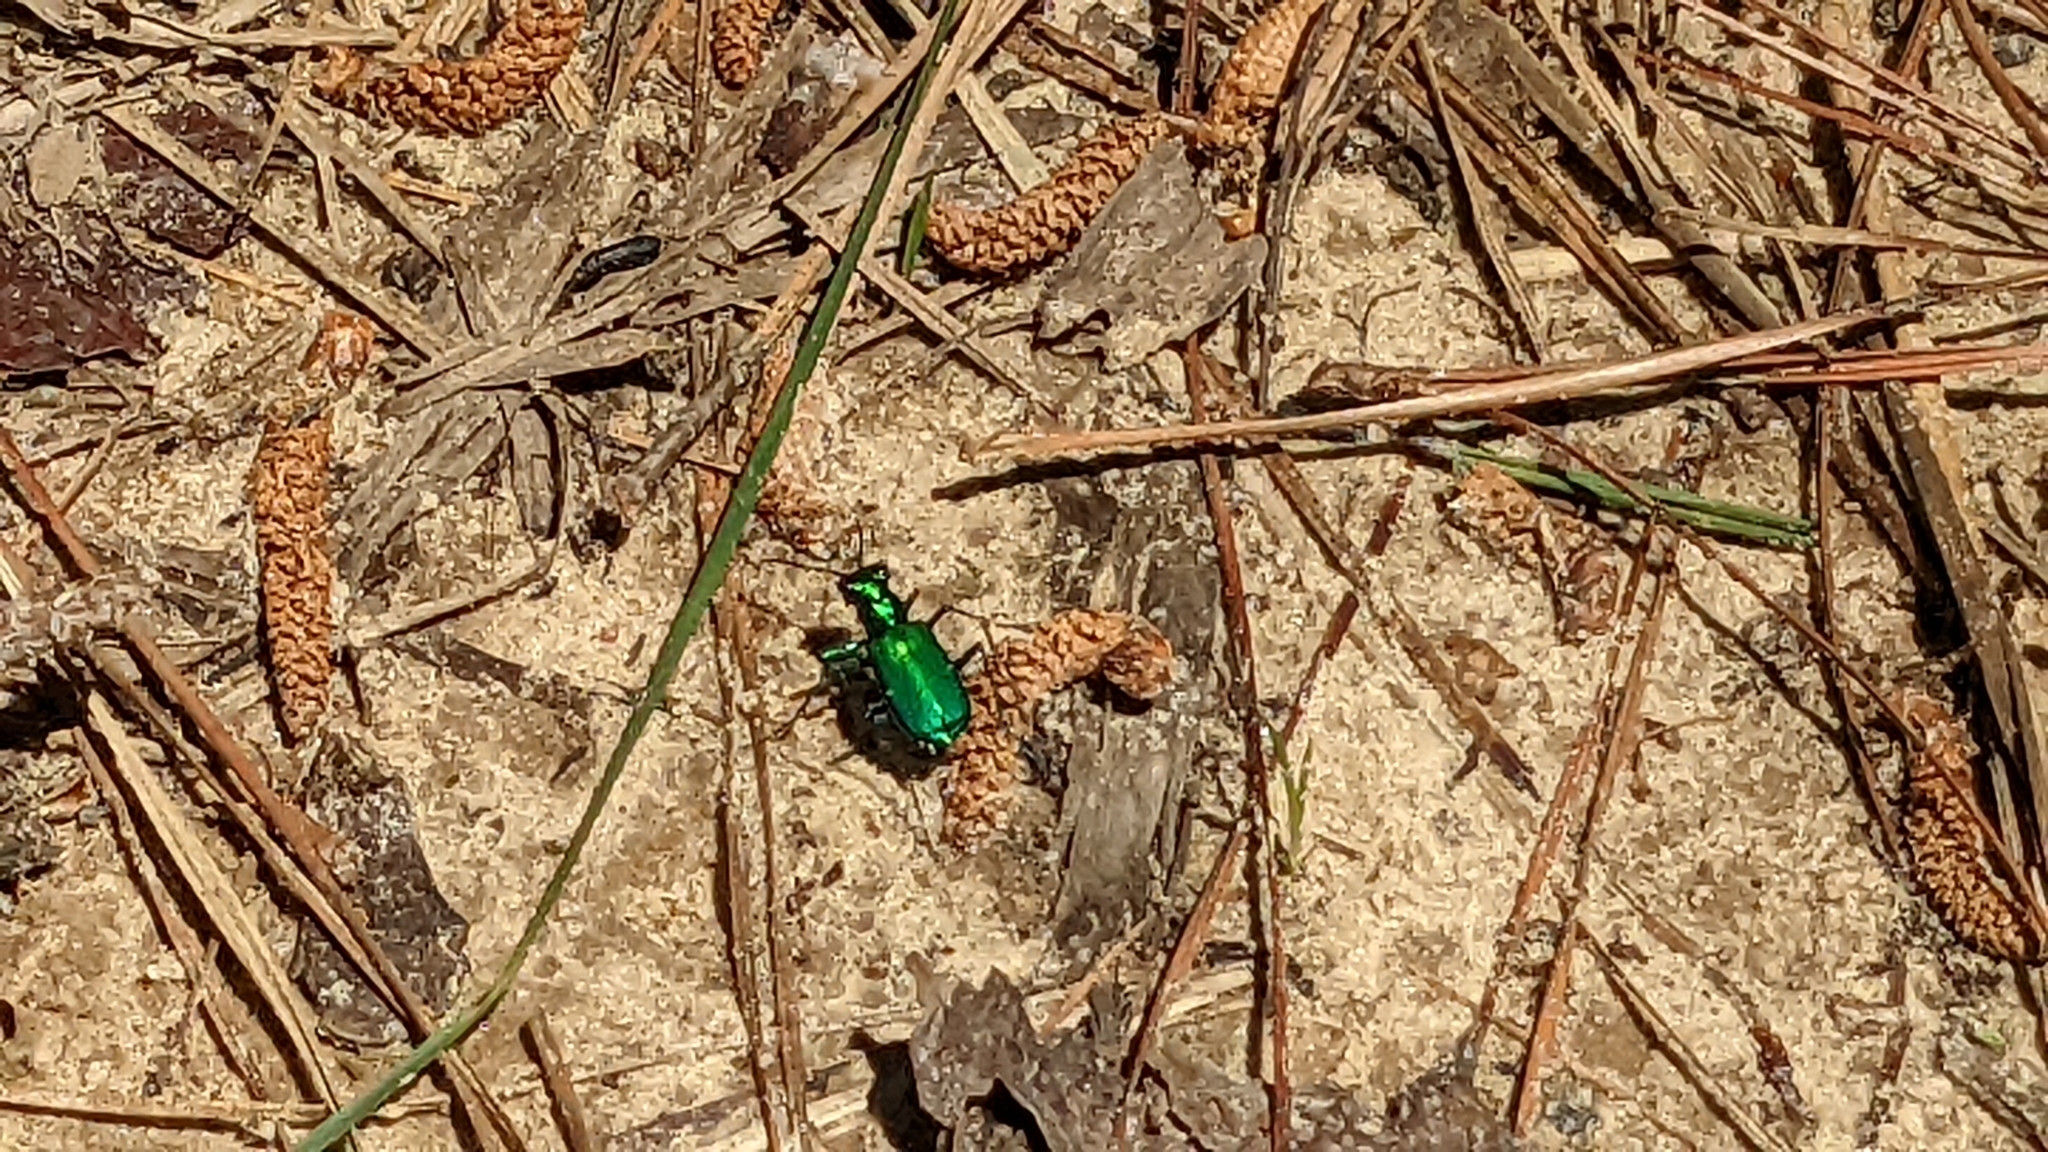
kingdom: Animalia
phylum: Arthropoda
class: Insecta
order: Coleoptera
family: Carabidae
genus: Cicindela
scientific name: Cicindela sexguttata
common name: Six-spotted tiger beetle
